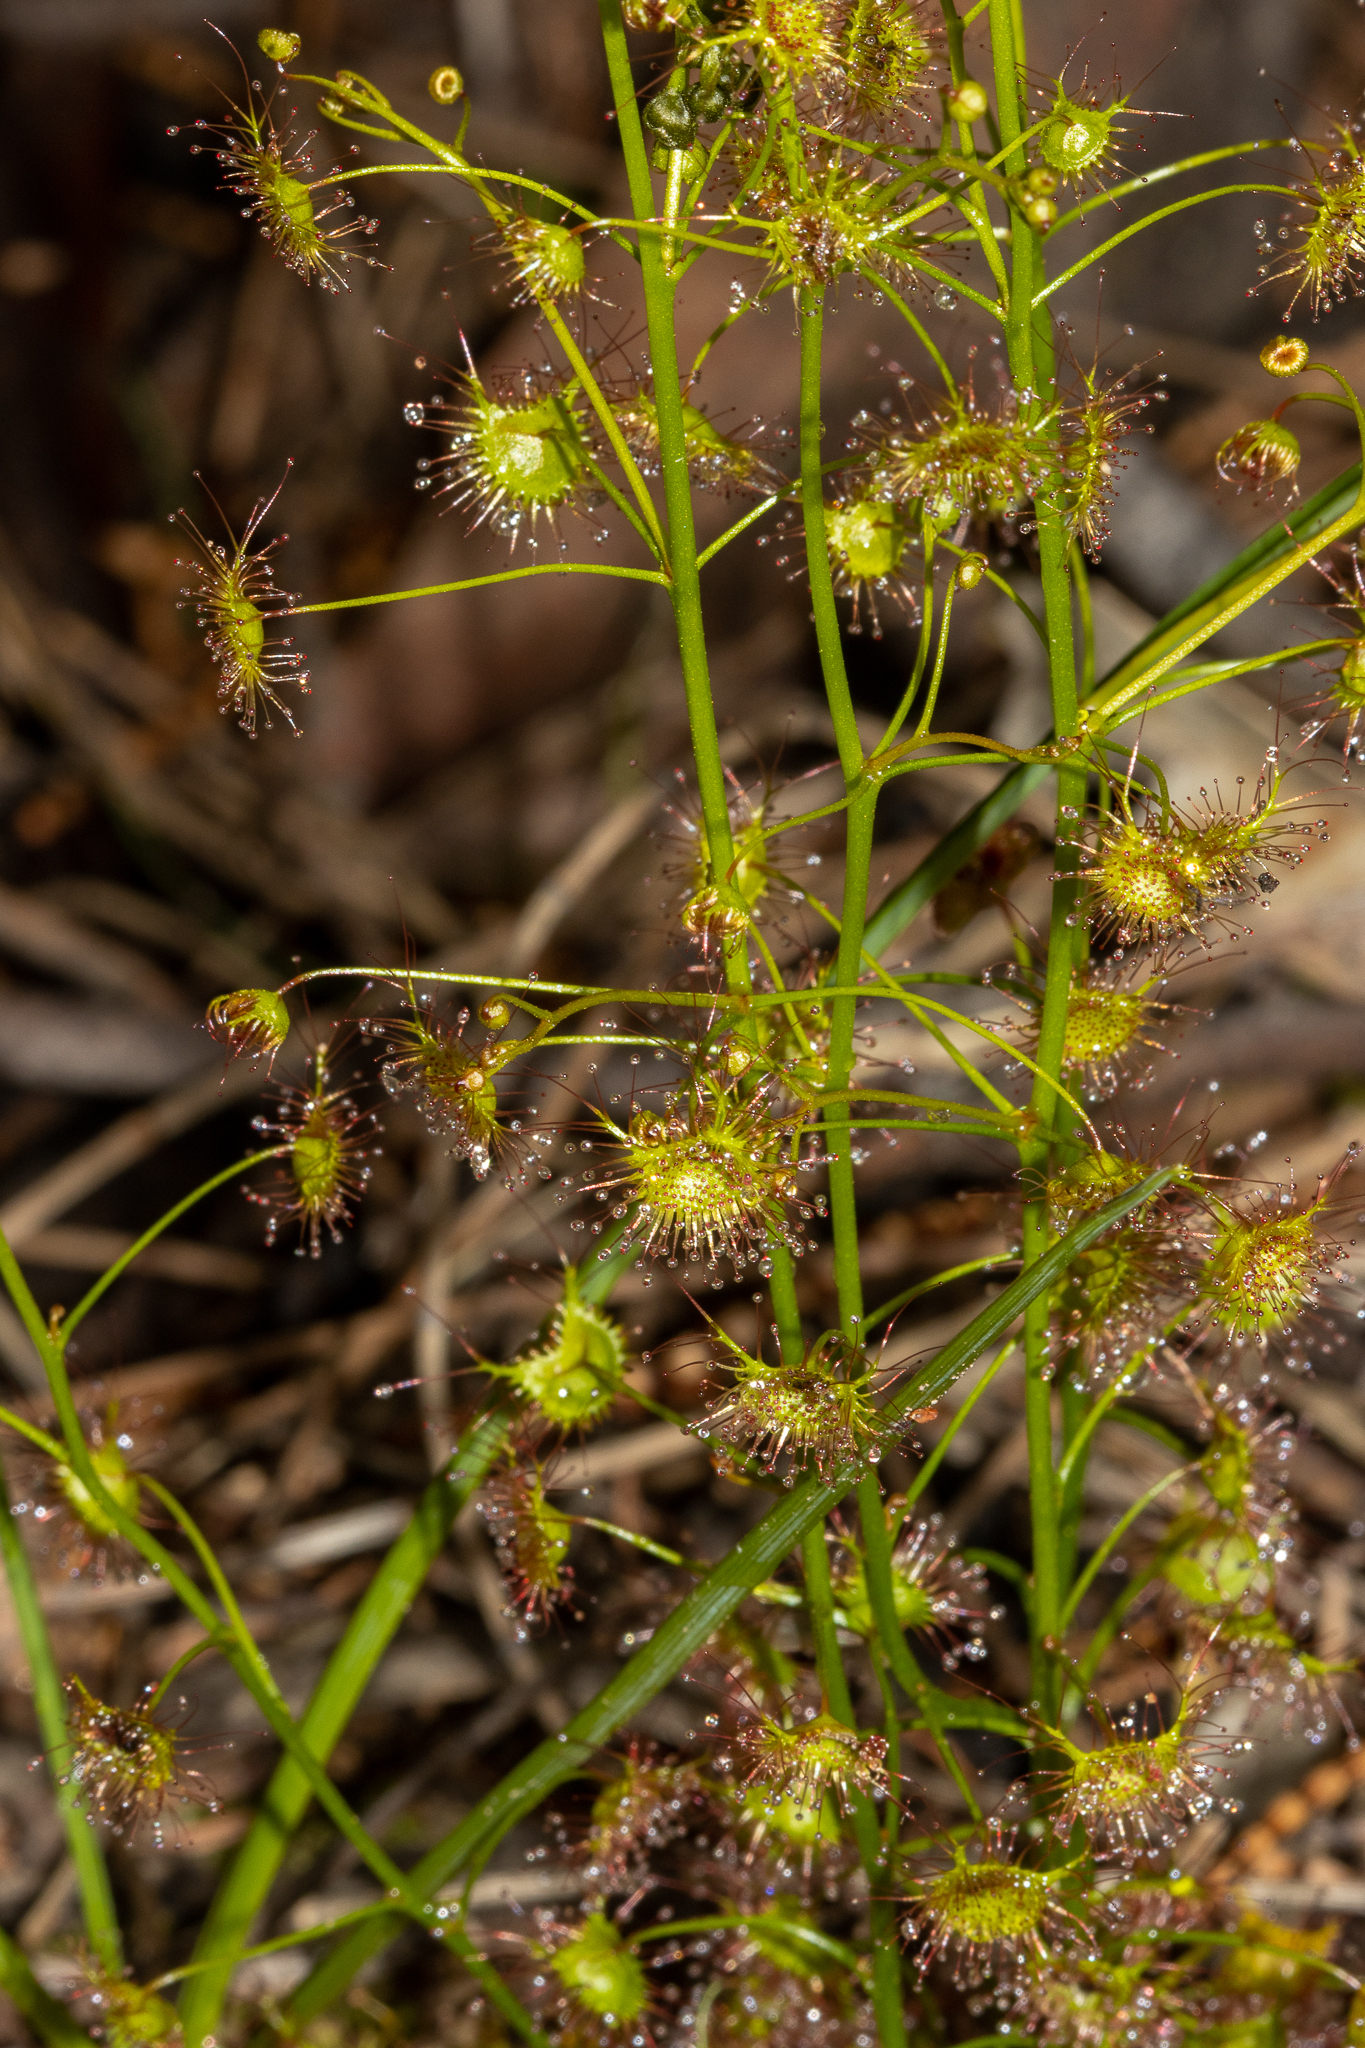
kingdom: Plantae
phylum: Tracheophyta
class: Magnoliopsida
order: Caryophyllales
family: Droseraceae
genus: Drosera
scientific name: Drosera peltata
